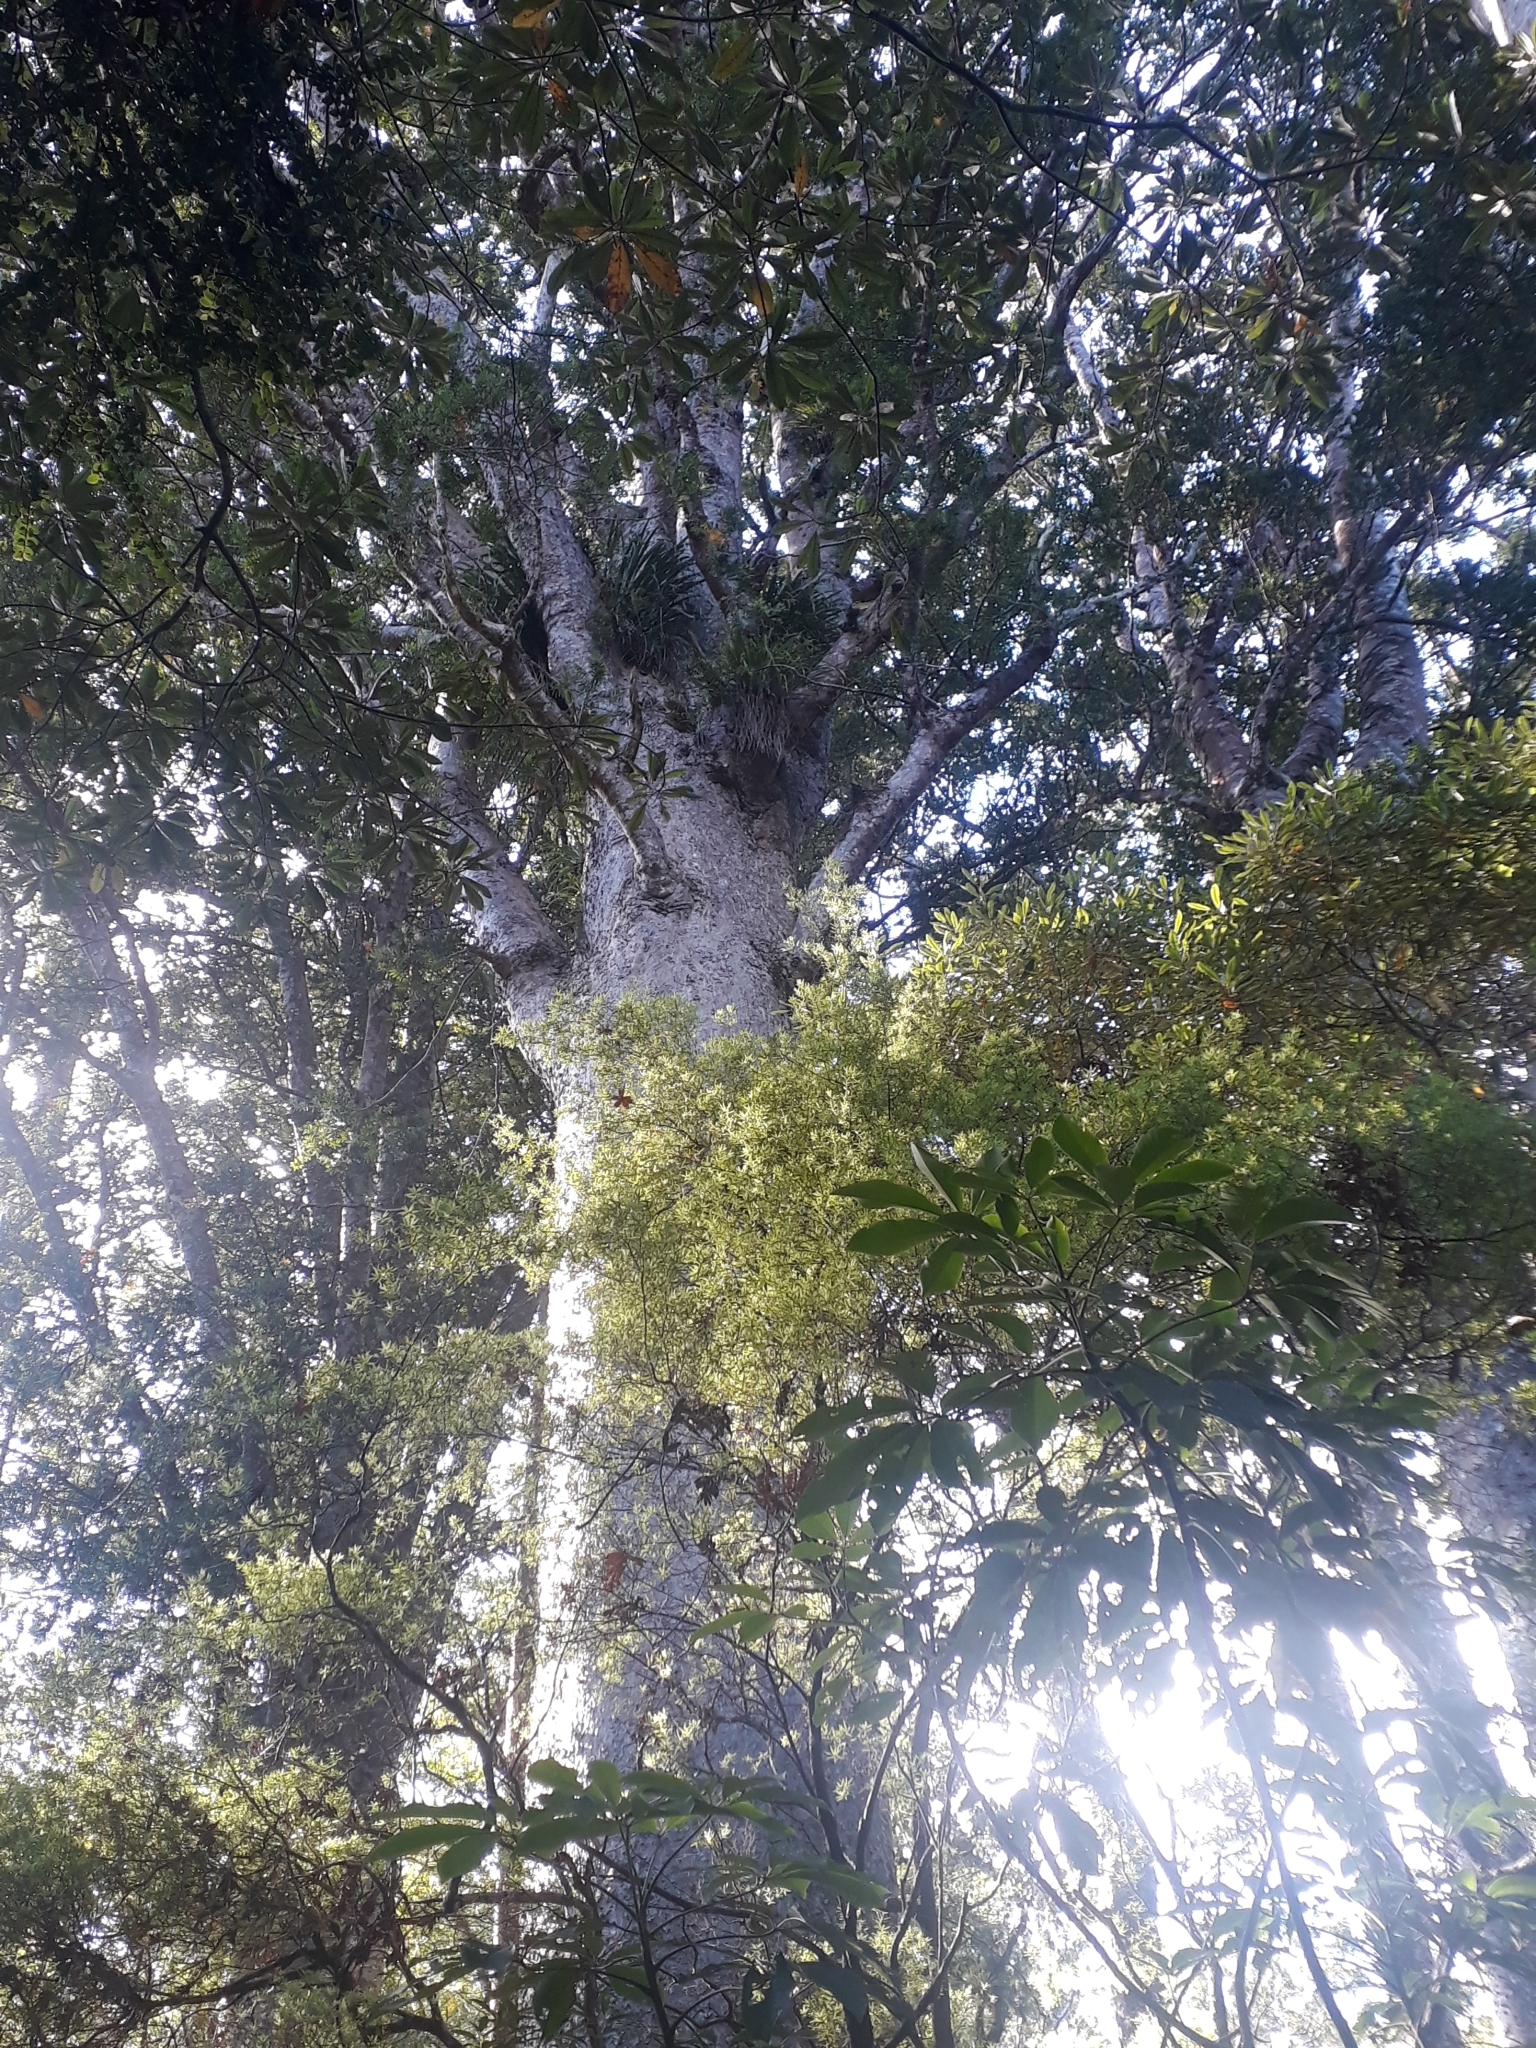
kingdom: Plantae
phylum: Tracheophyta
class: Pinopsida
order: Pinales
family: Araucariaceae
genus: Agathis
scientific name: Agathis australis
